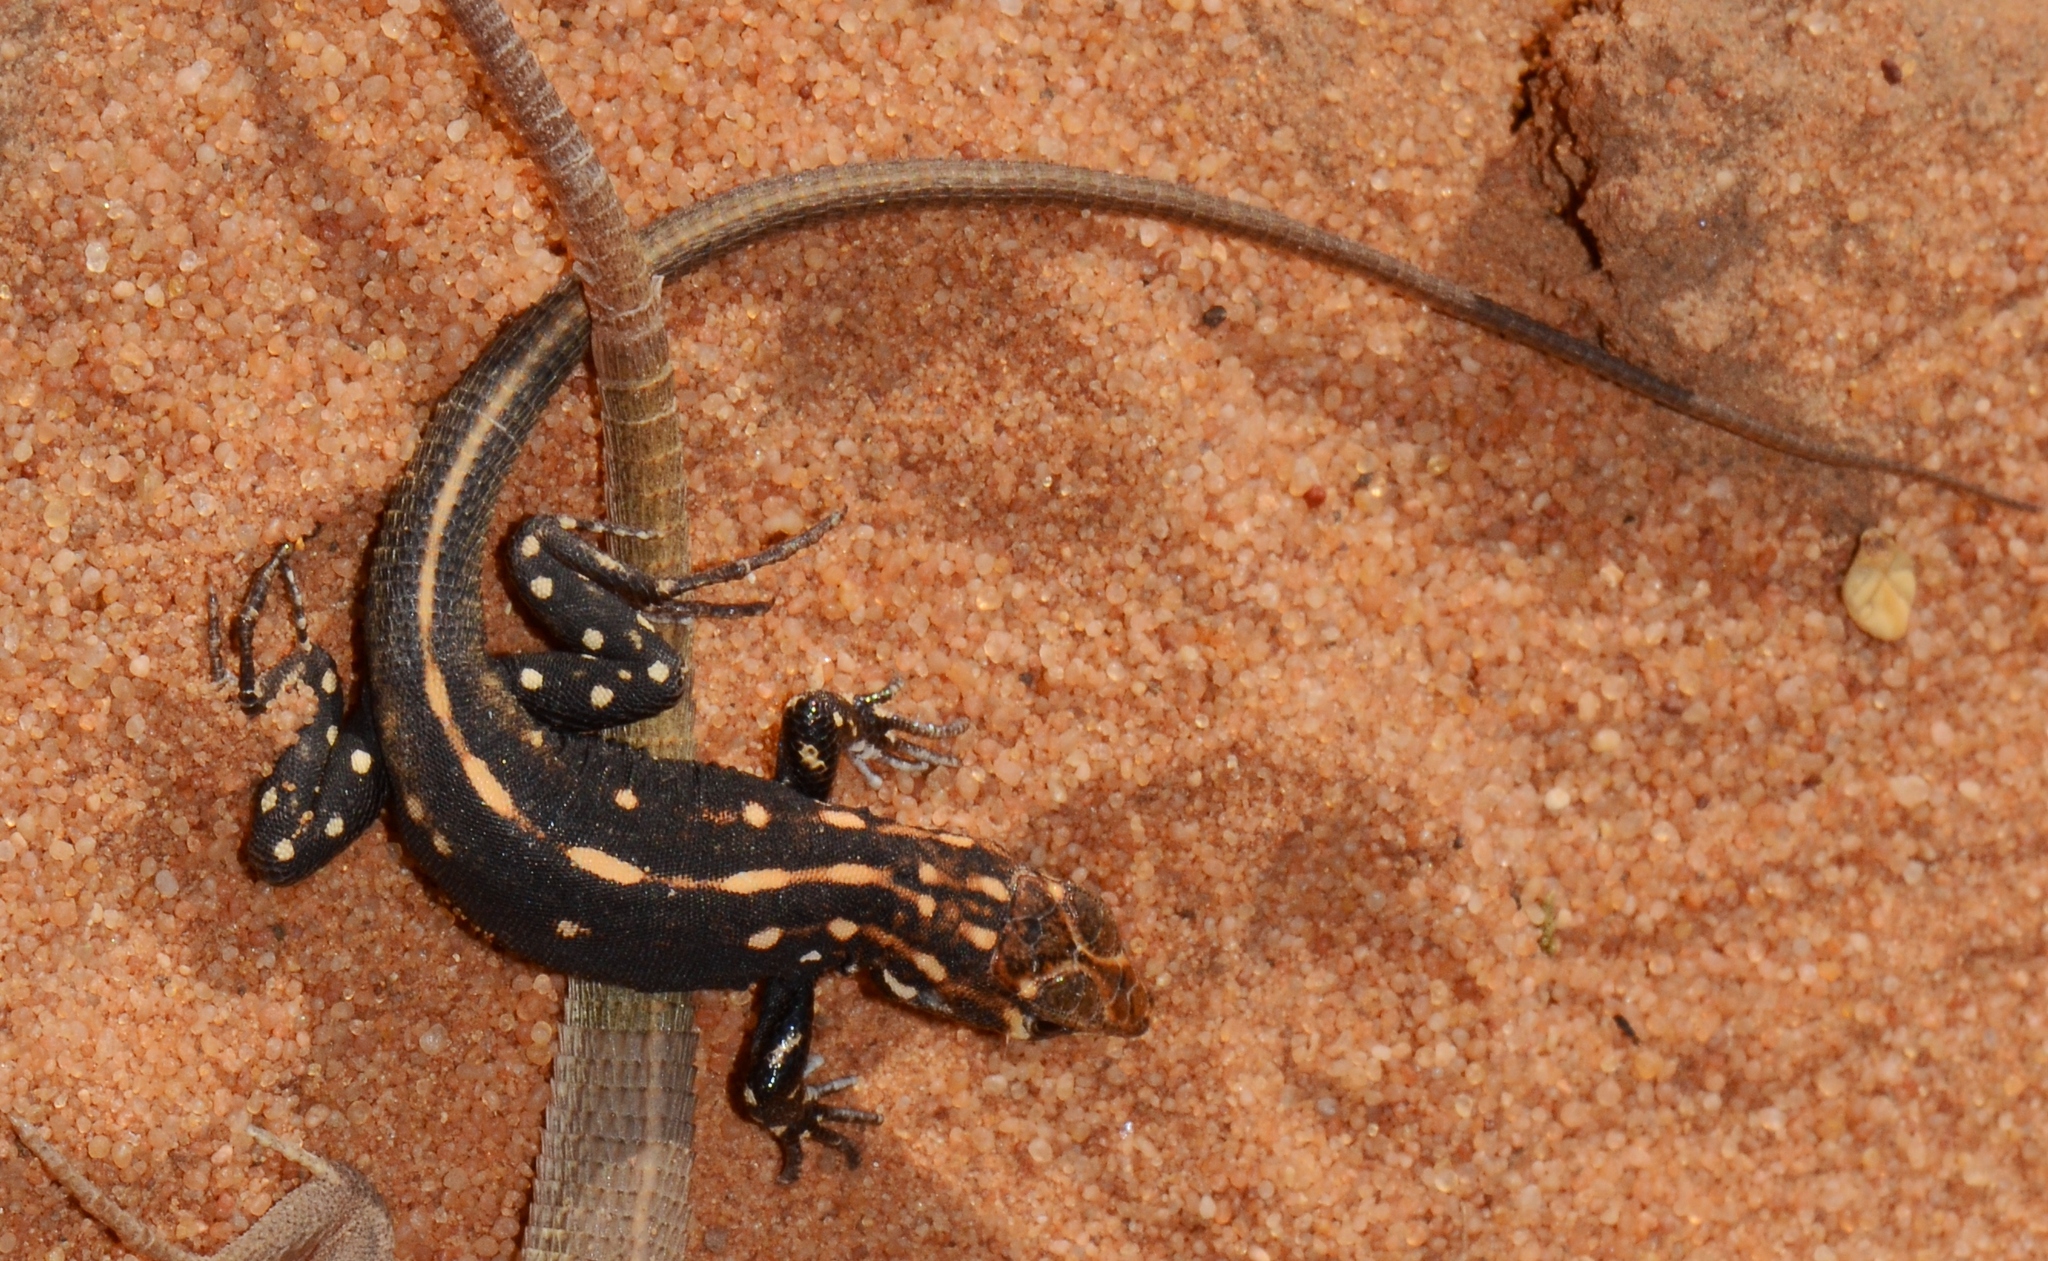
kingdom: Animalia
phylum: Chordata
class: Squamata
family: Lacertidae
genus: Heliobolus
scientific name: Heliobolus lugubris
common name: Bushveld lizard
